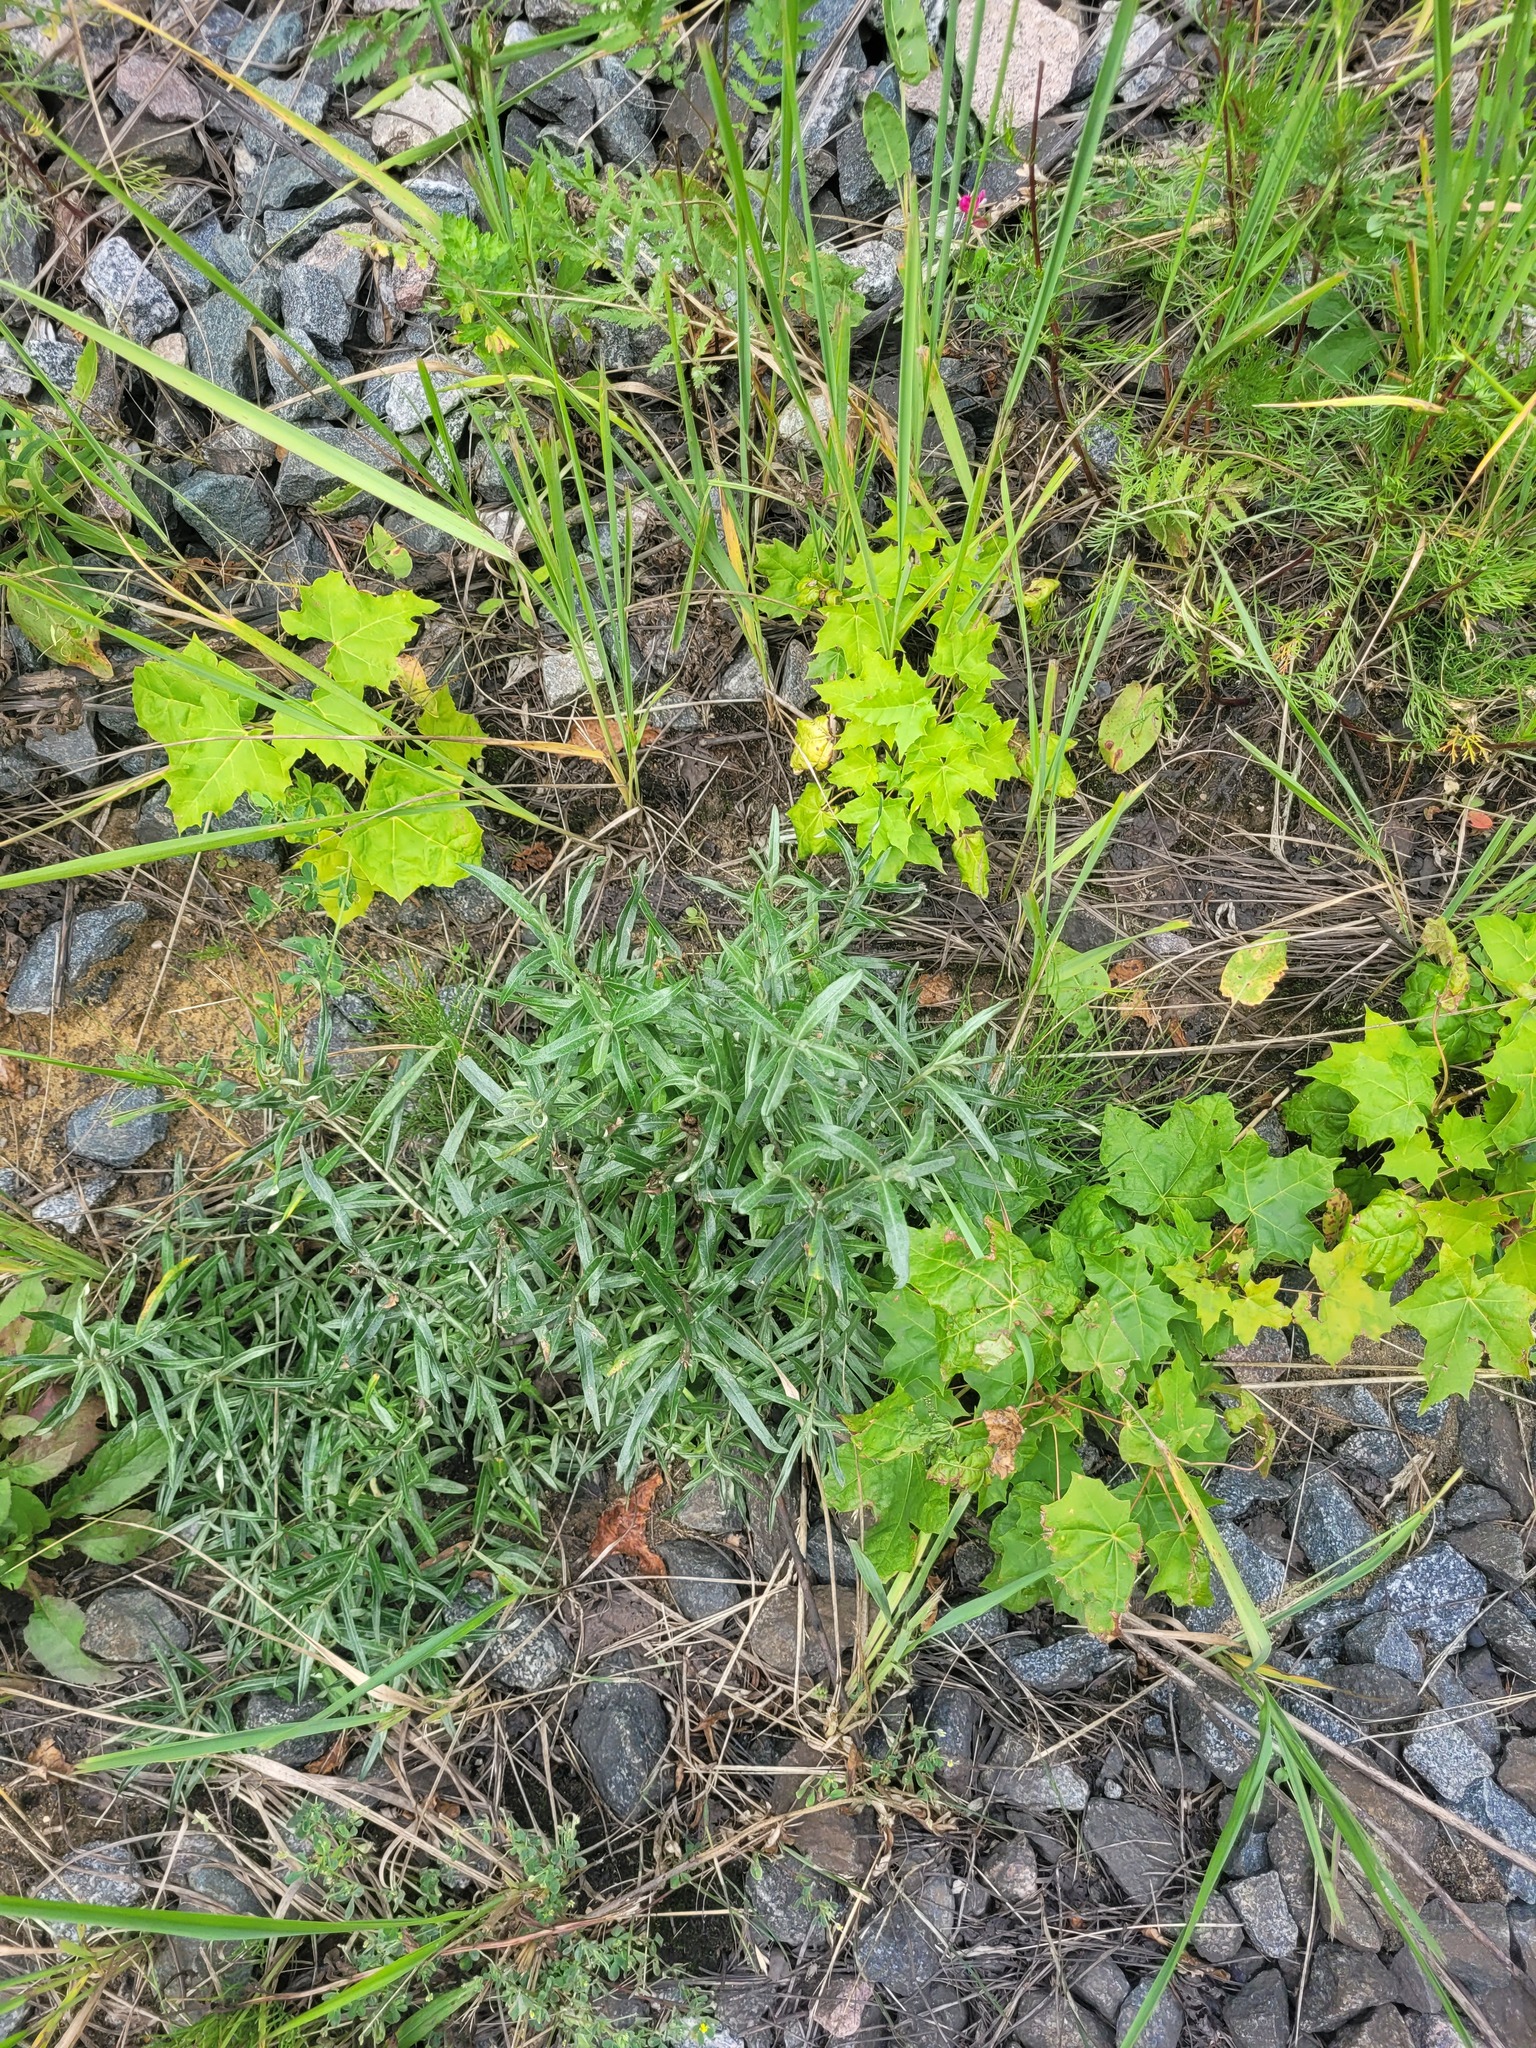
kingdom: Plantae
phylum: Tracheophyta
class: Magnoliopsida
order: Rosales
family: Elaeagnaceae
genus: Hippophae
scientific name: Hippophae rhamnoides
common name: Sea-buckthorn
